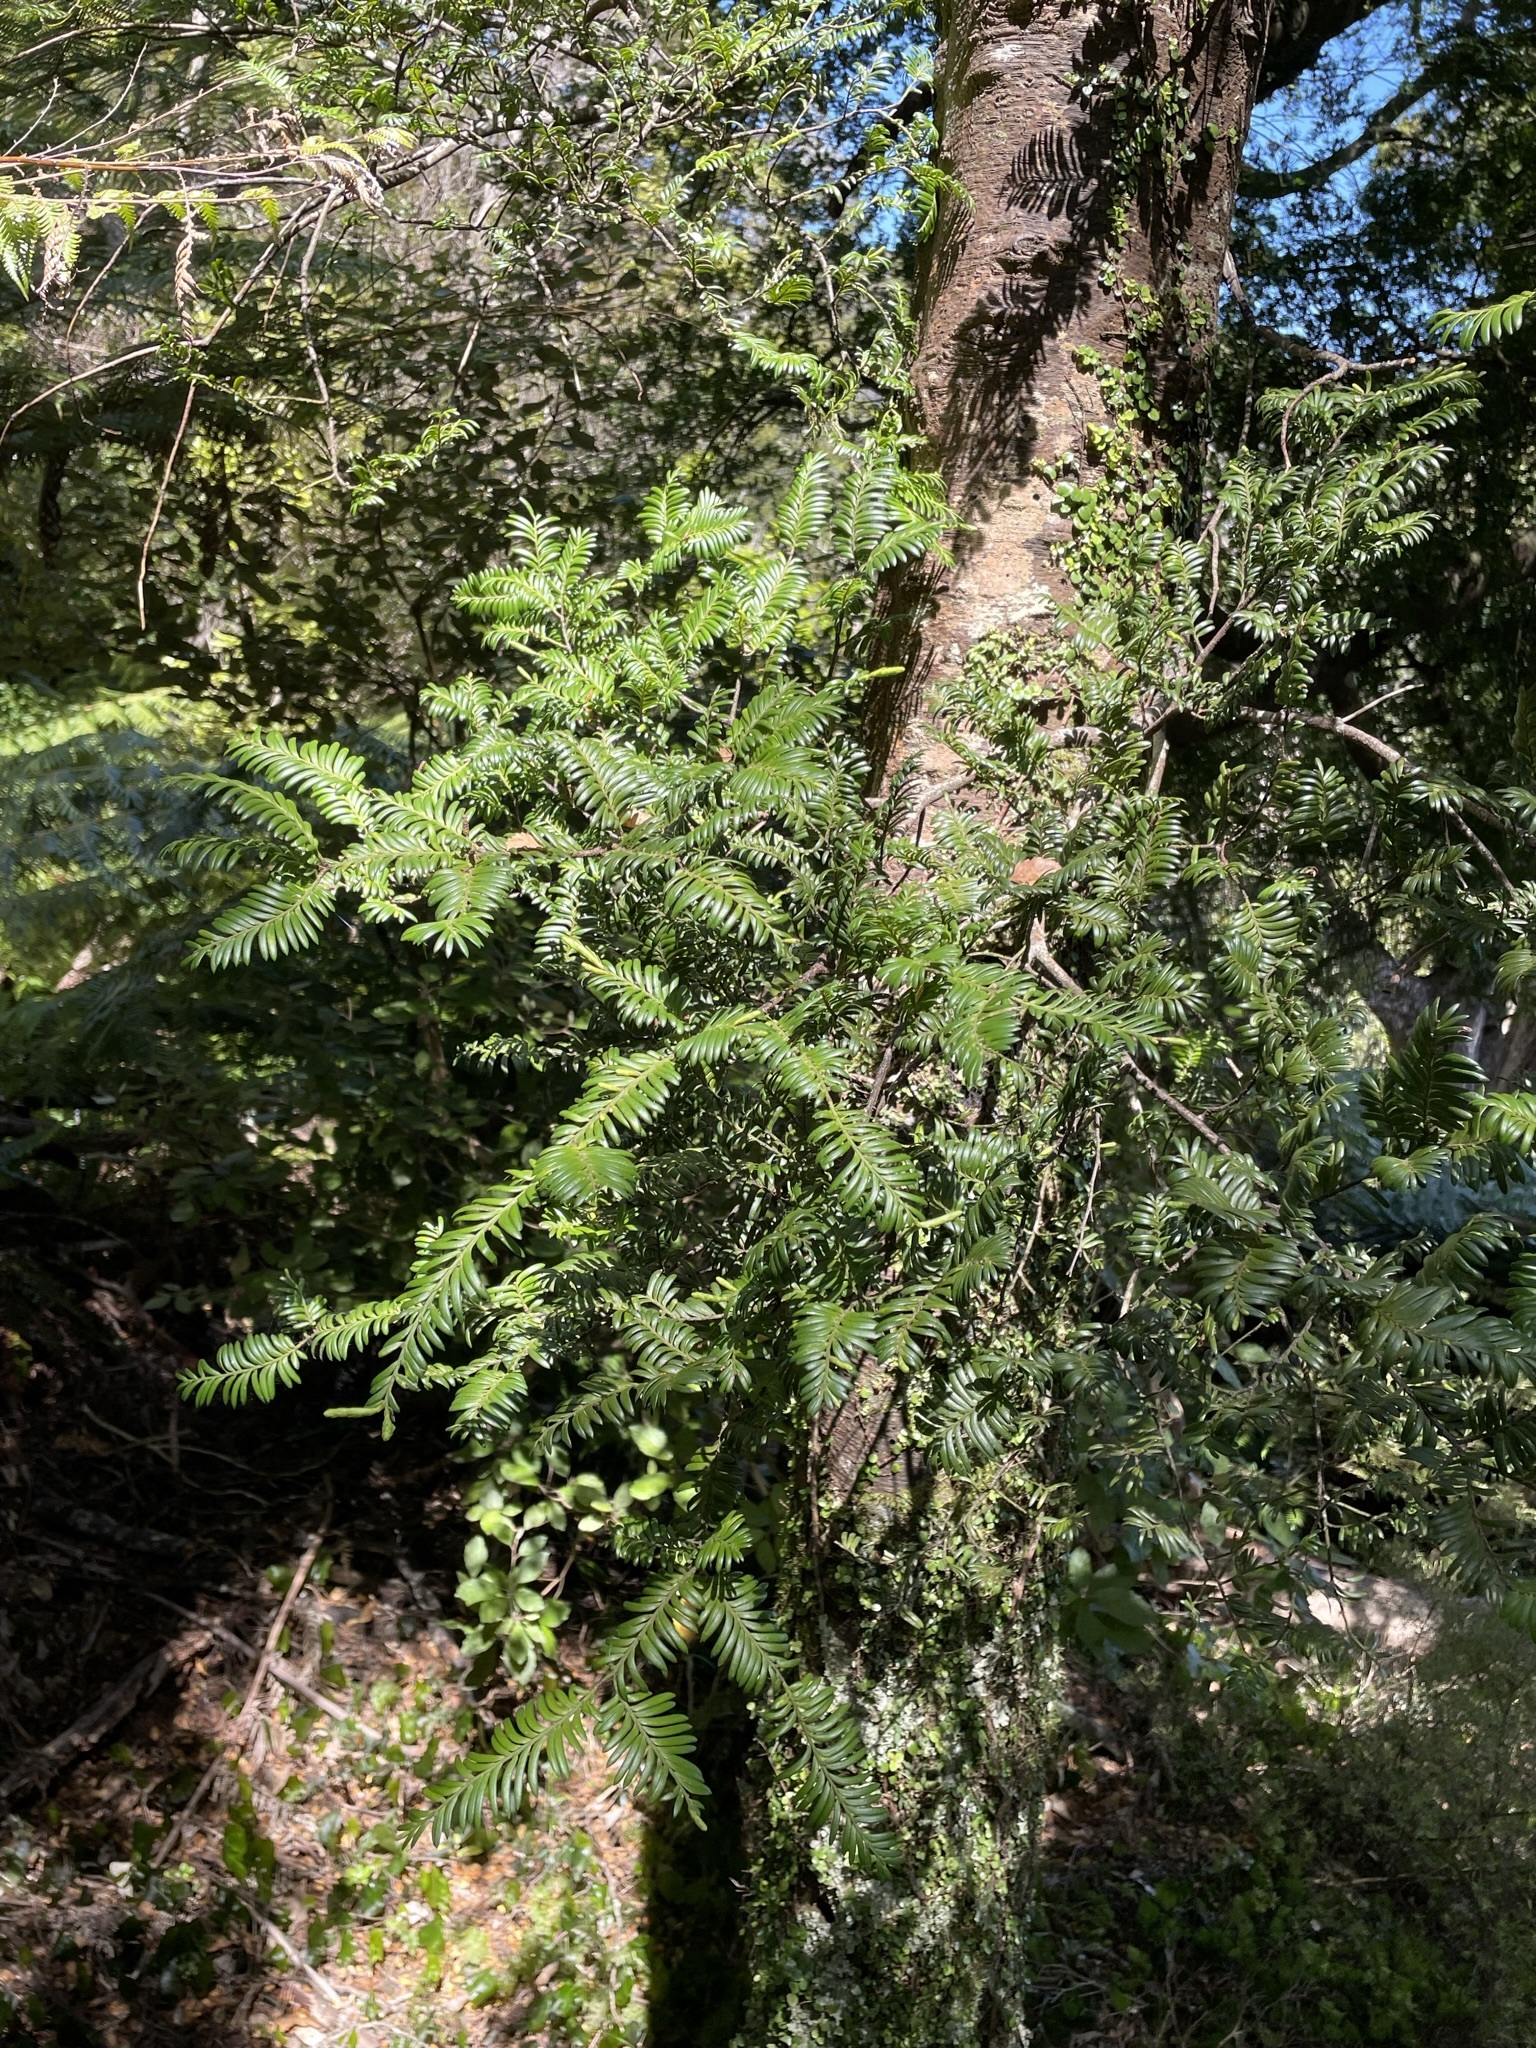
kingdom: Plantae
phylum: Tracheophyta
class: Pinopsida
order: Pinales
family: Podocarpaceae
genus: Prumnopitys
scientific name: Prumnopitys ferruginea
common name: Brown pine
